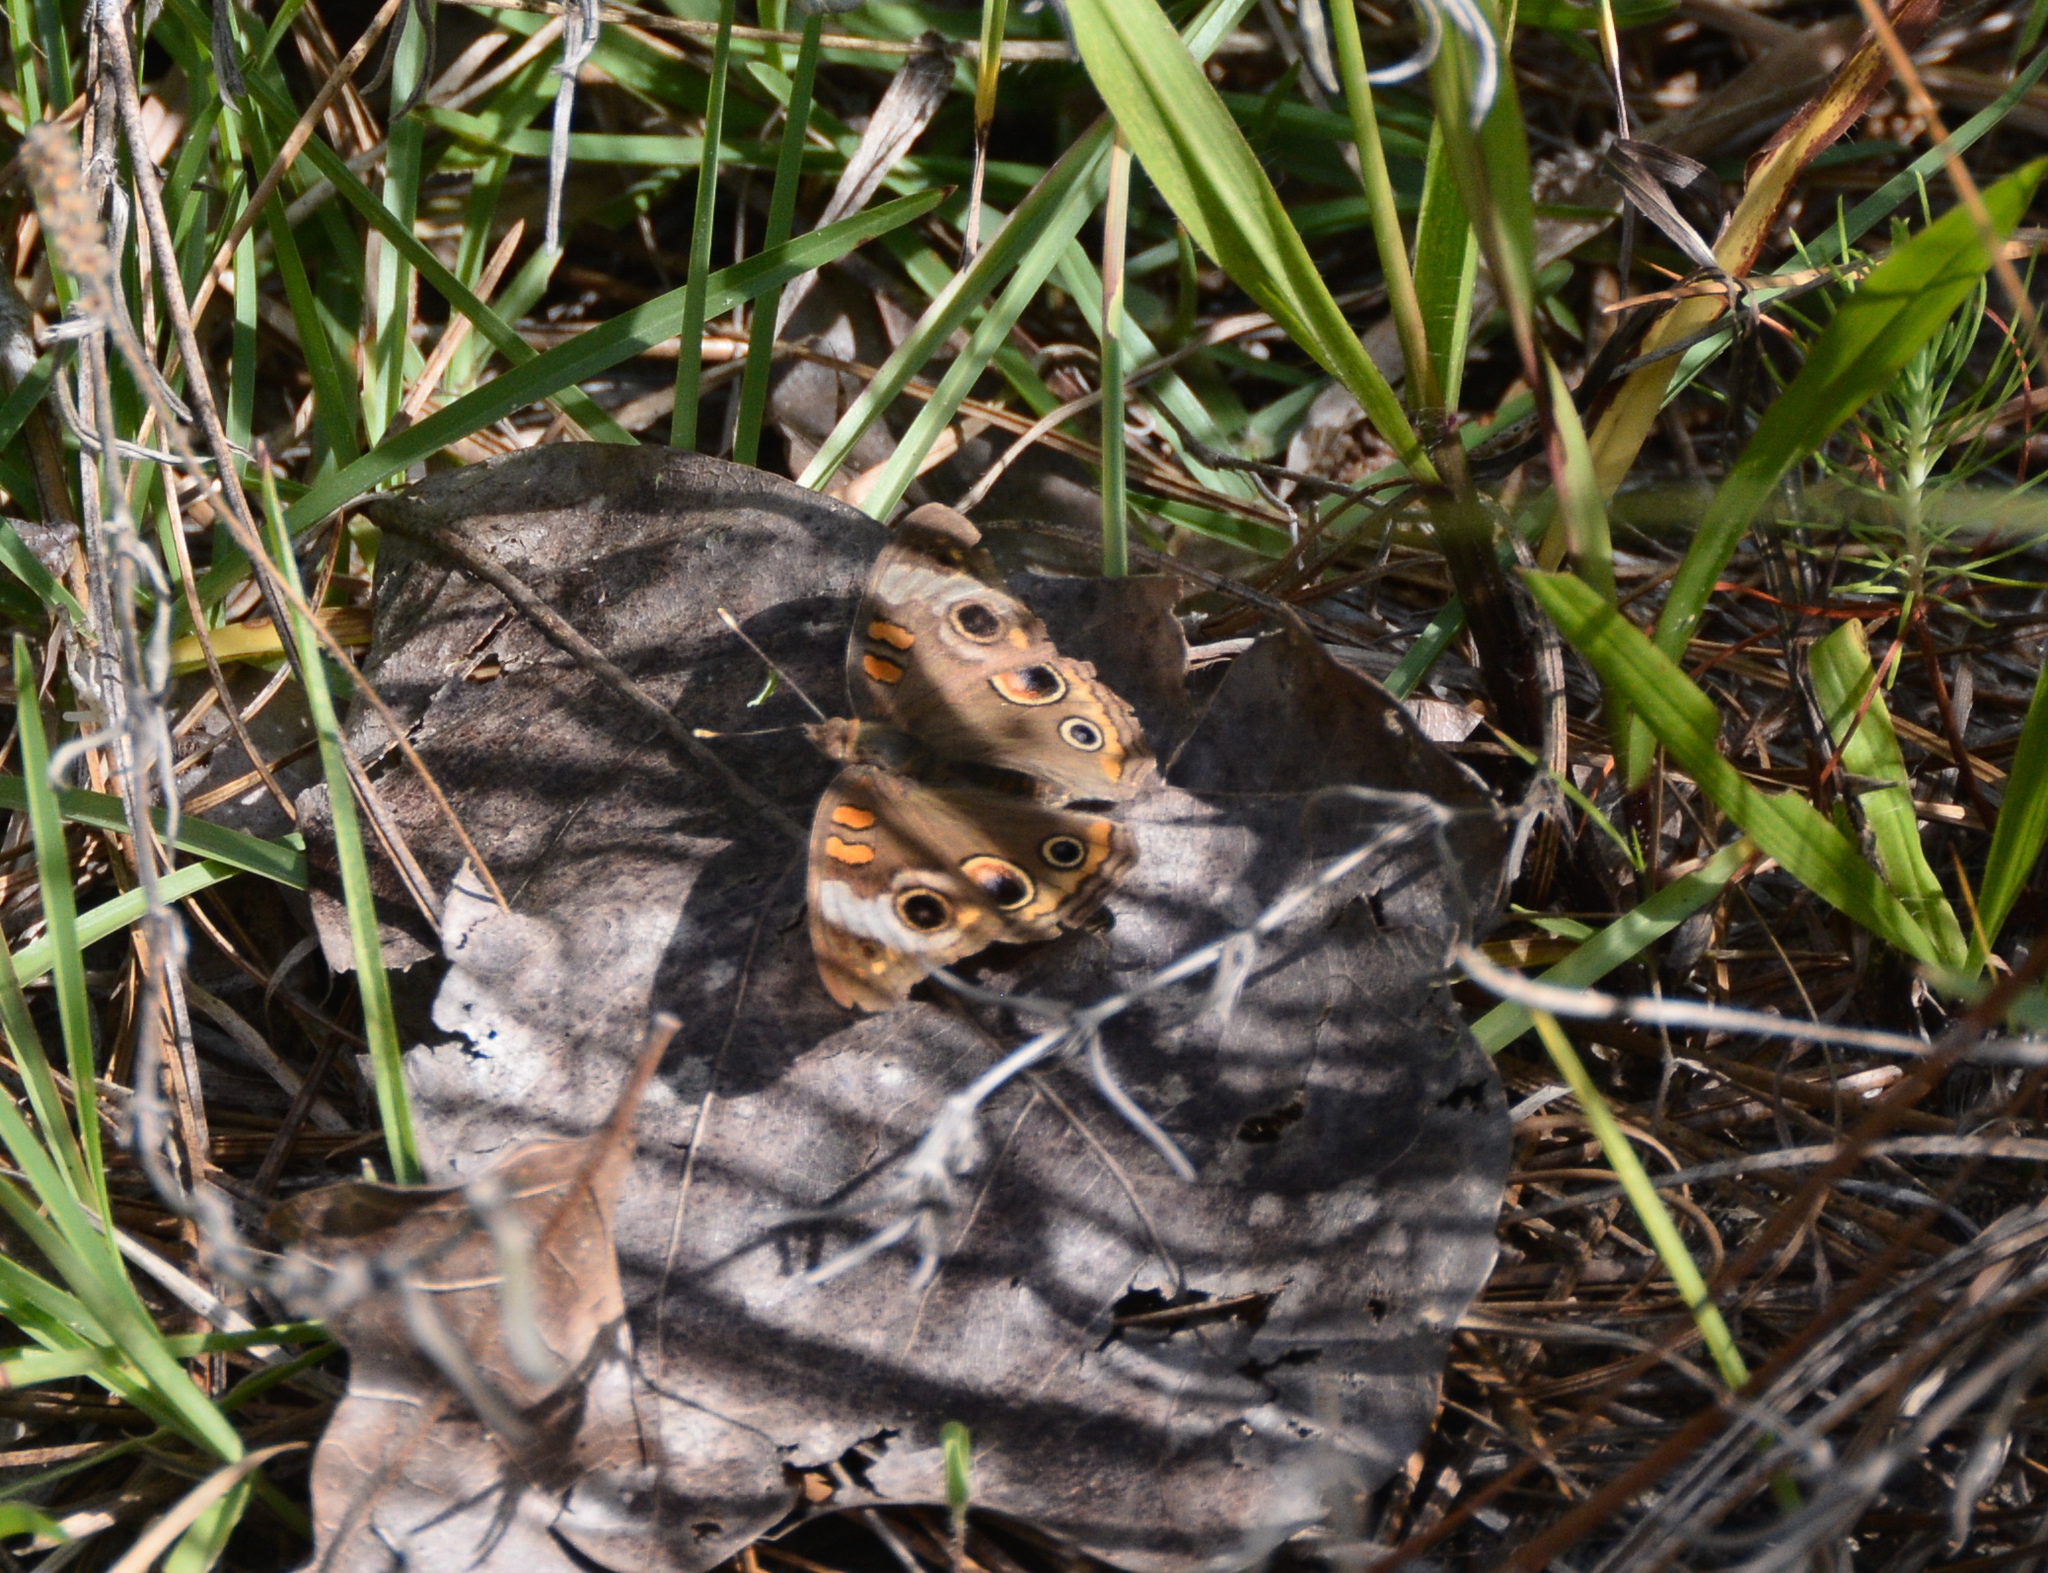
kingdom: Animalia
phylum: Arthropoda
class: Insecta
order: Lepidoptera
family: Nymphalidae
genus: Junonia
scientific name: Junonia coenia
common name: Common buckeye
